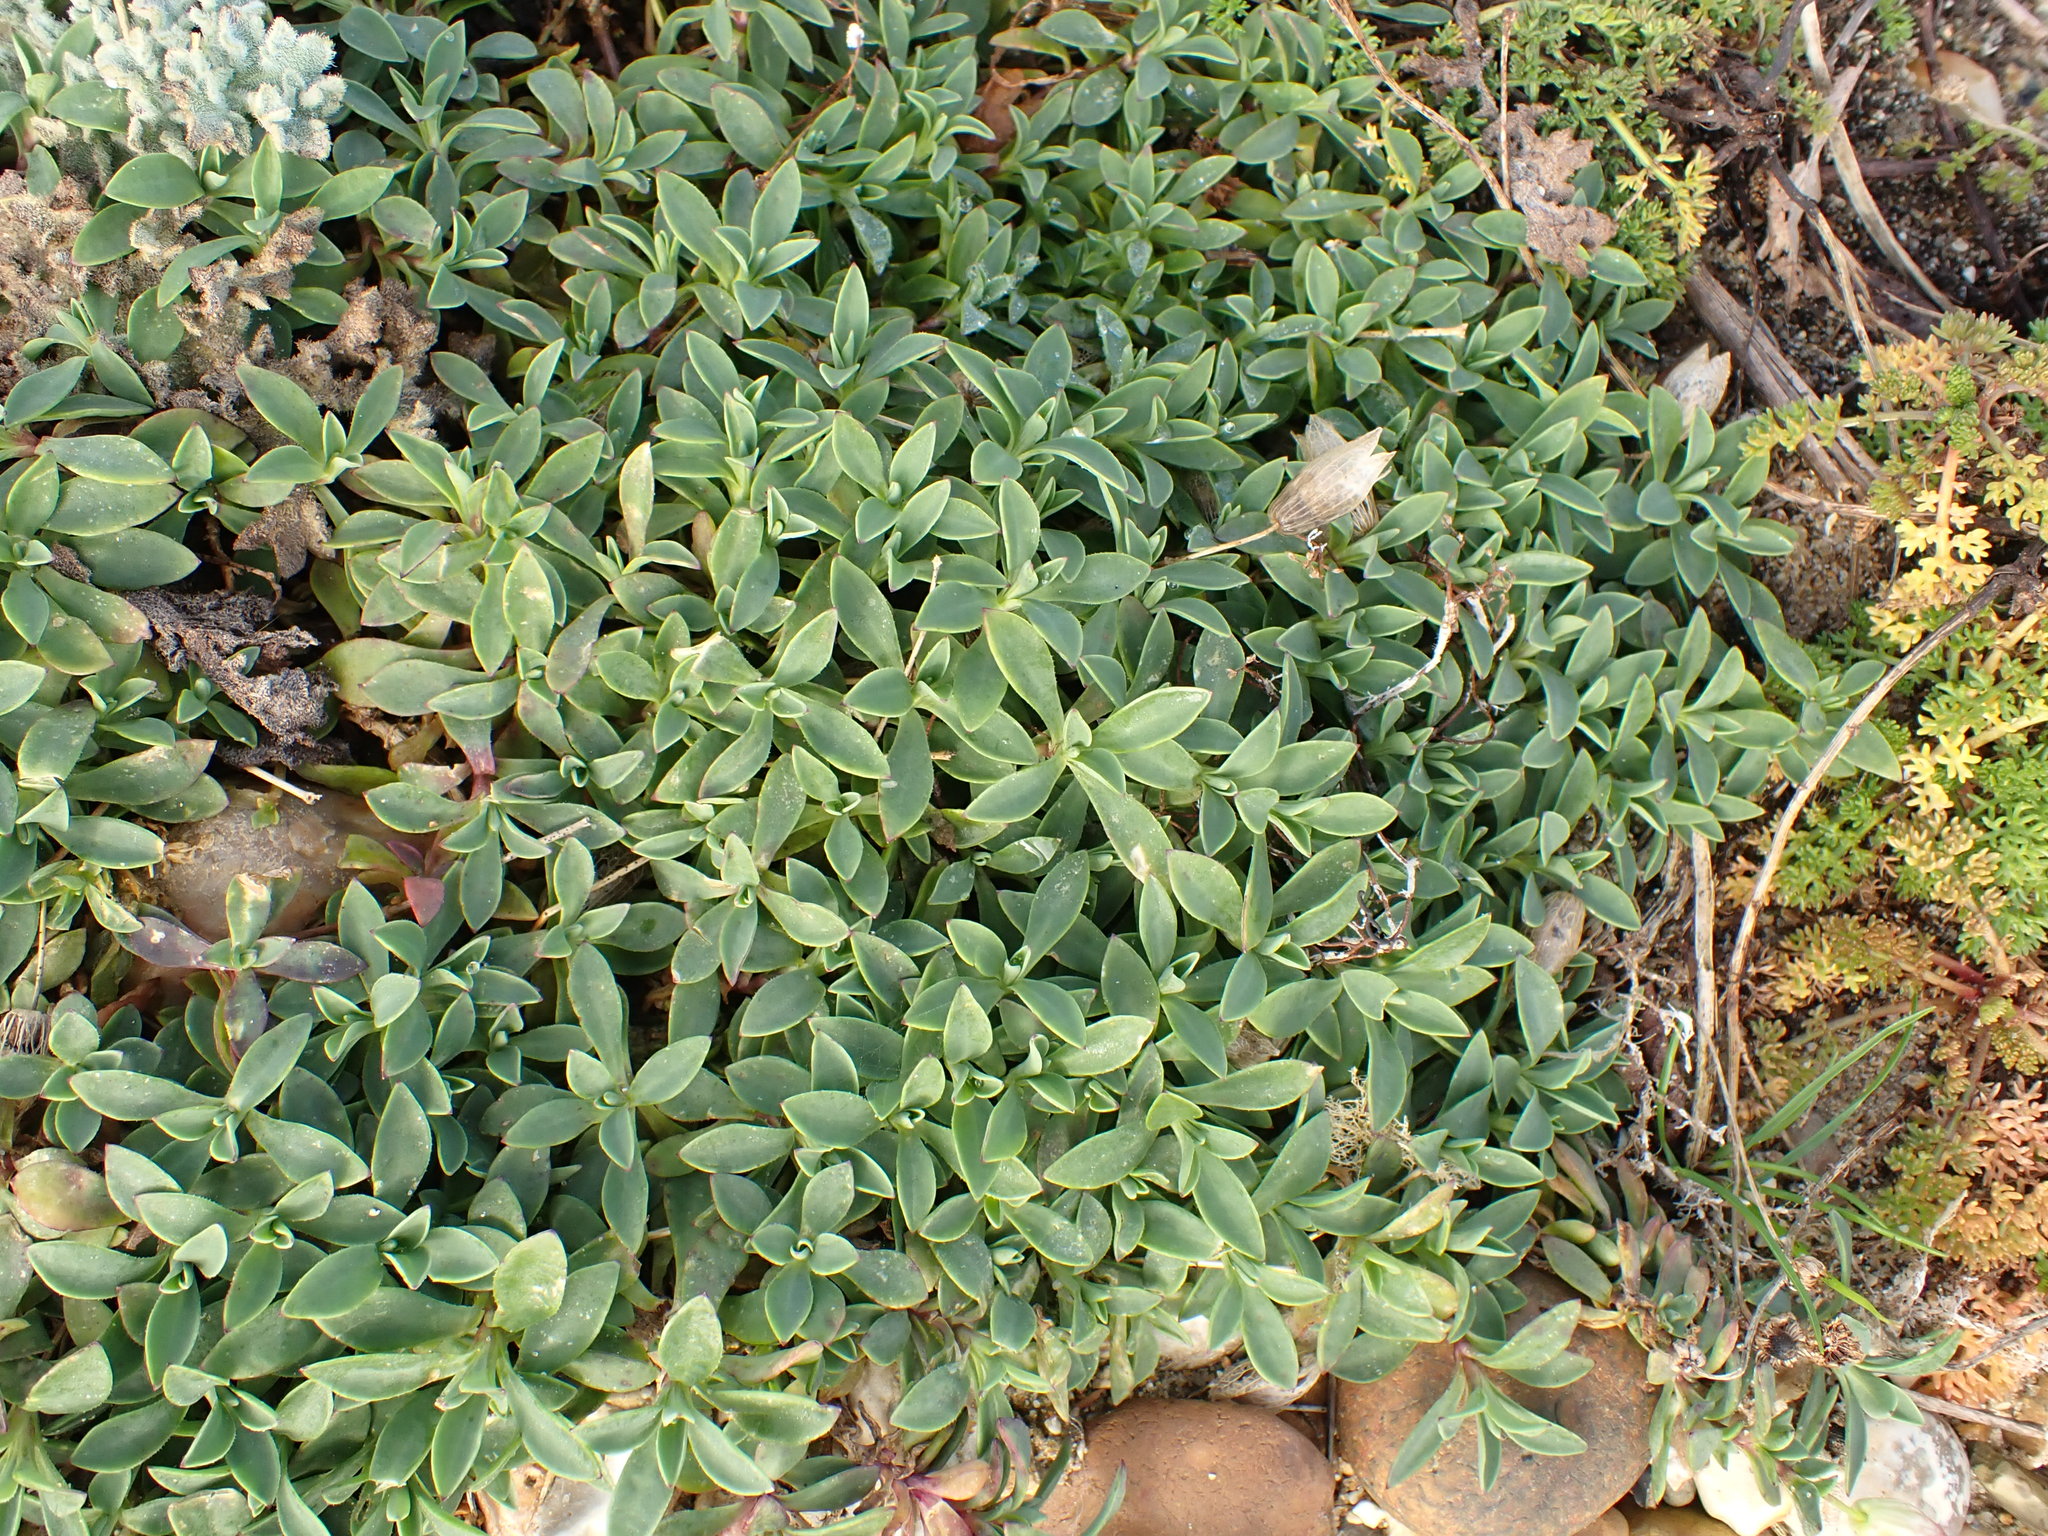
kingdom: Plantae
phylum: Tracheophyta
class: Magnoliopsida
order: Caryophyllales
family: Caryophyllaceae
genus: Silene
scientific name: Silene uniflora
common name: Sea campion
